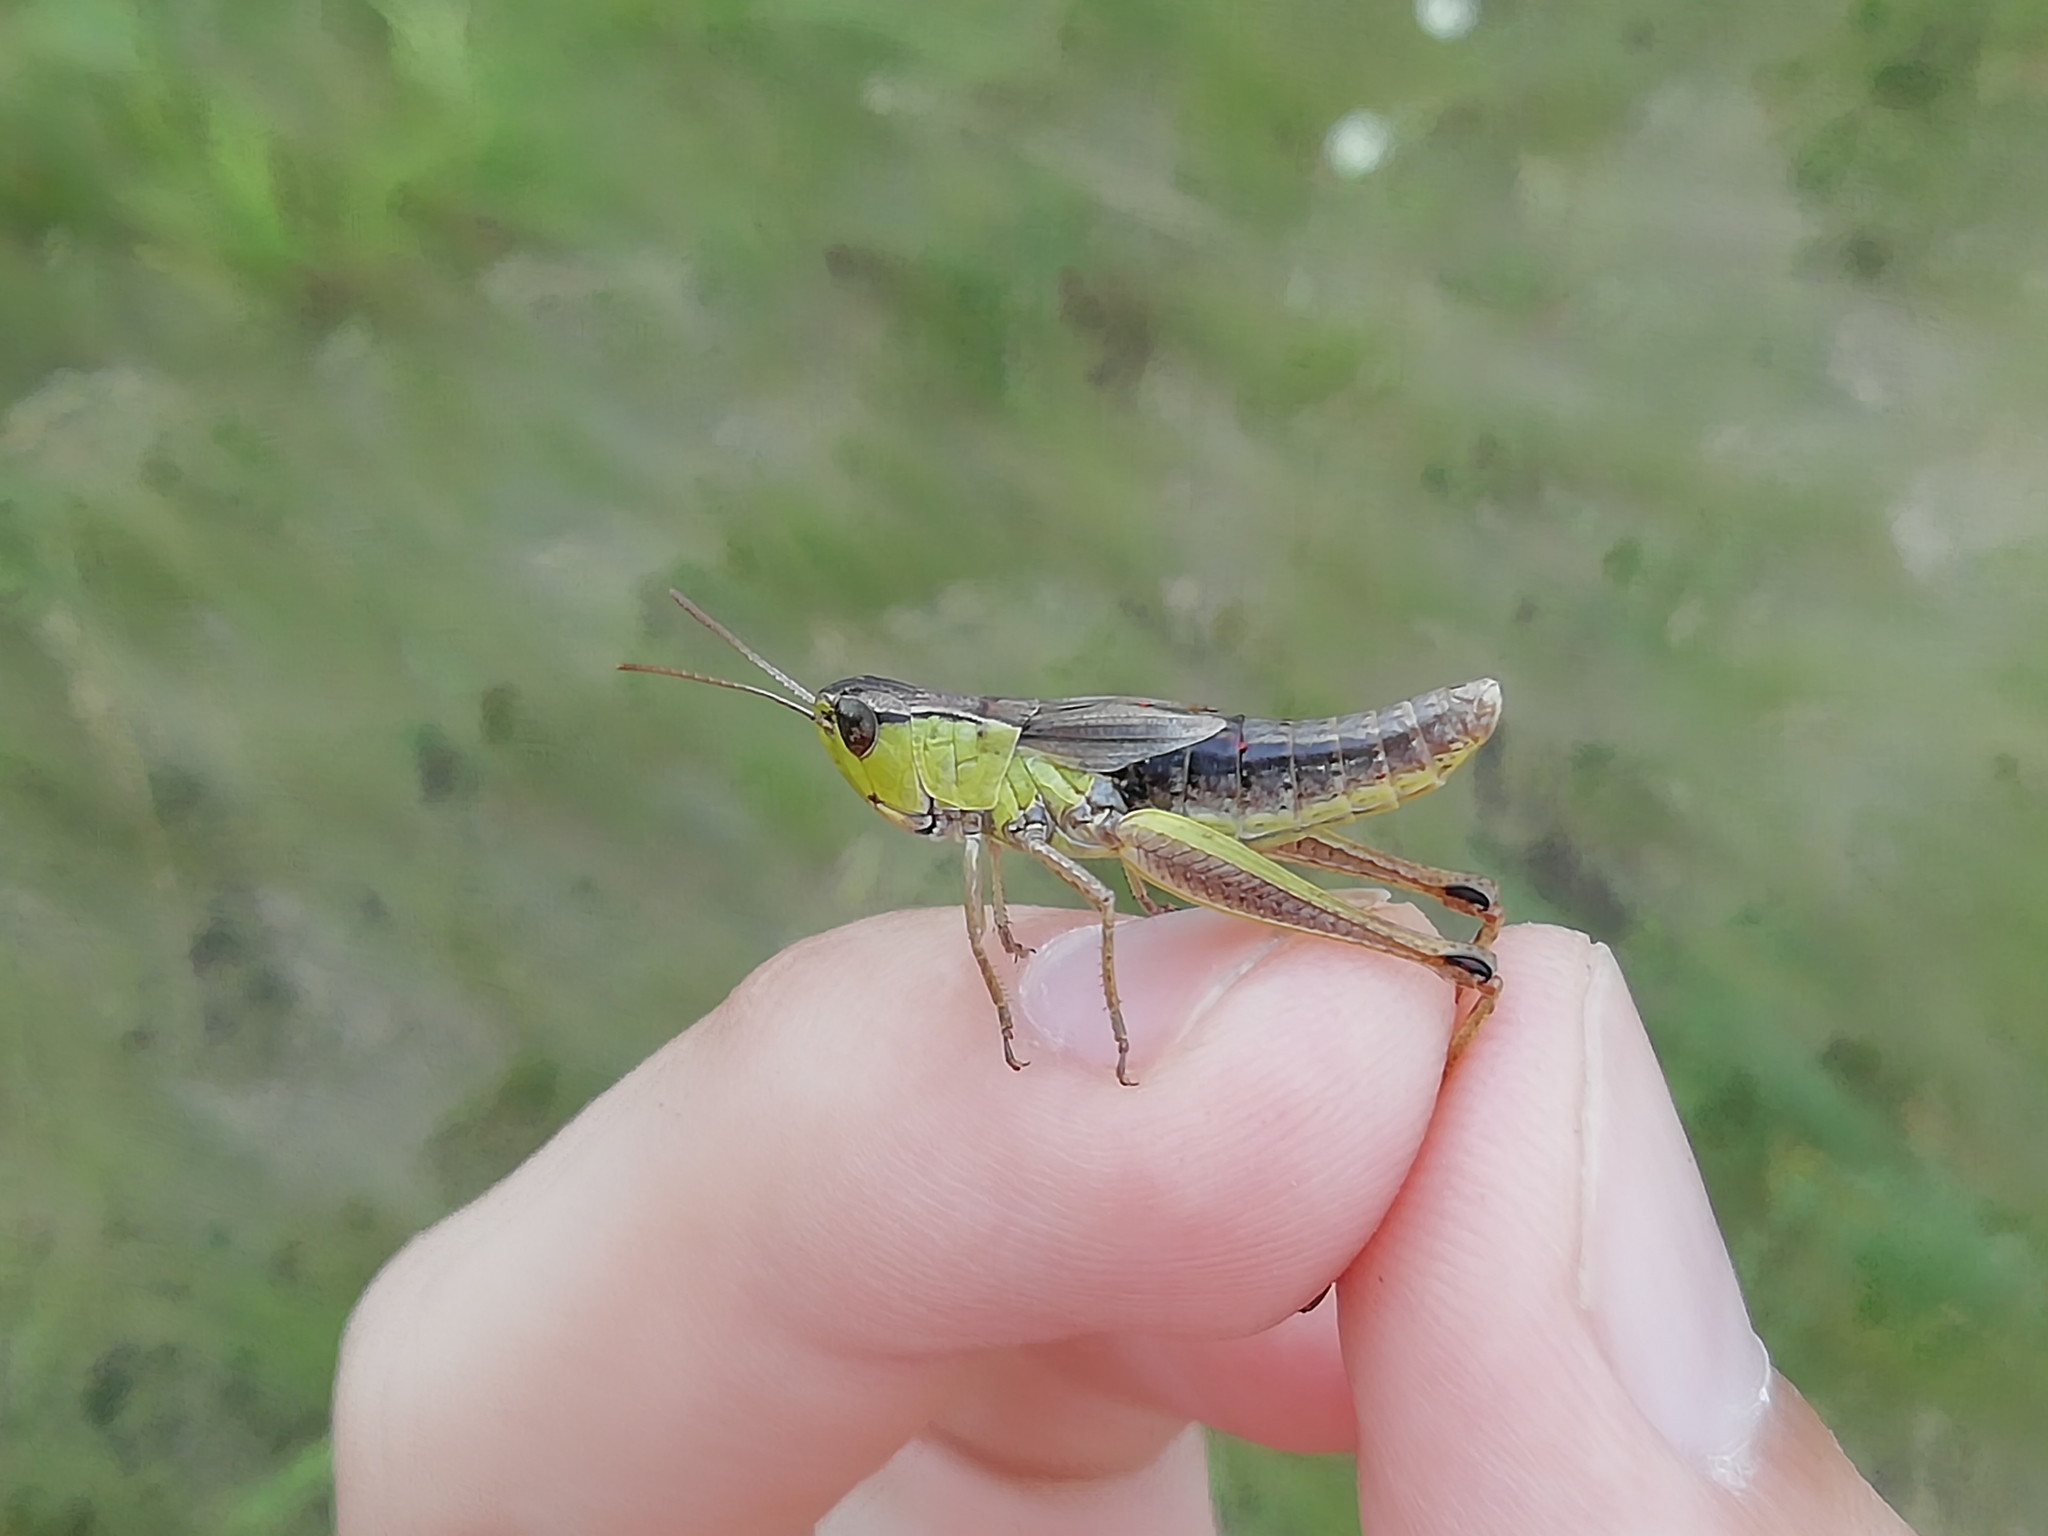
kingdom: Animalia
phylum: Arthropoda
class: Insecta
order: Orthoptera
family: Acrididae
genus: Pseudochorthippus
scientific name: Pseudochorthippus parallelus
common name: Meadow grasshopper
